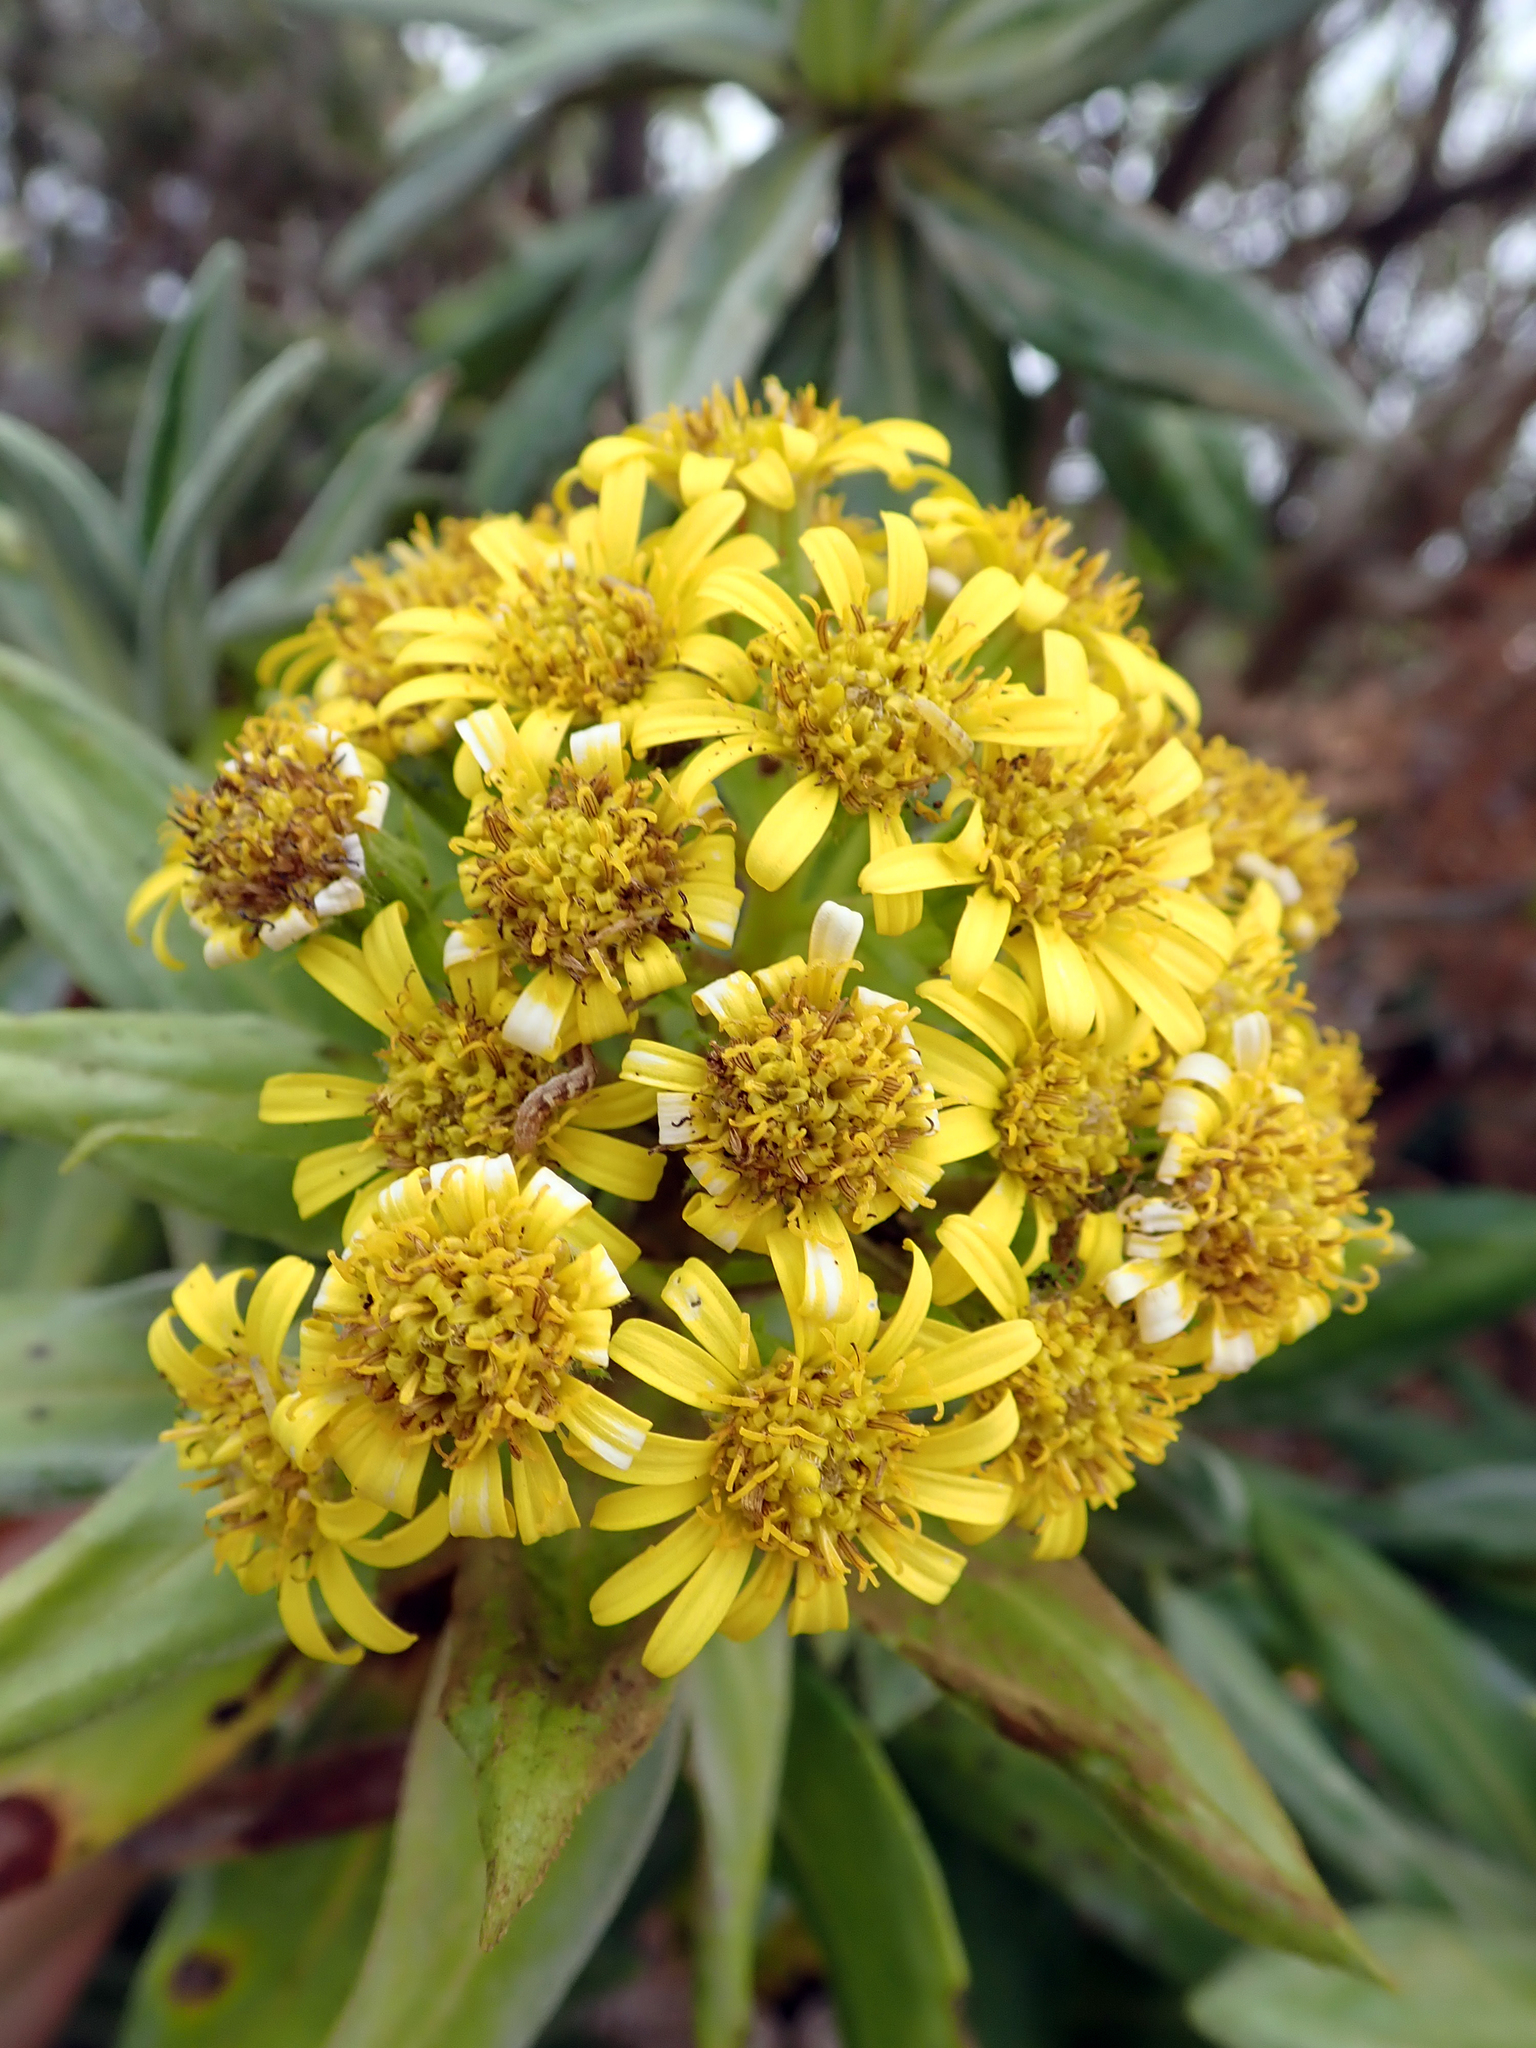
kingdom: Plantae
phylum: Tracheophyta
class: Magnoliopsida
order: Asterales
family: Asteraceae
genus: Brachyglottis
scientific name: Brachyglottis huntii
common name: Chatham island christmas tree
